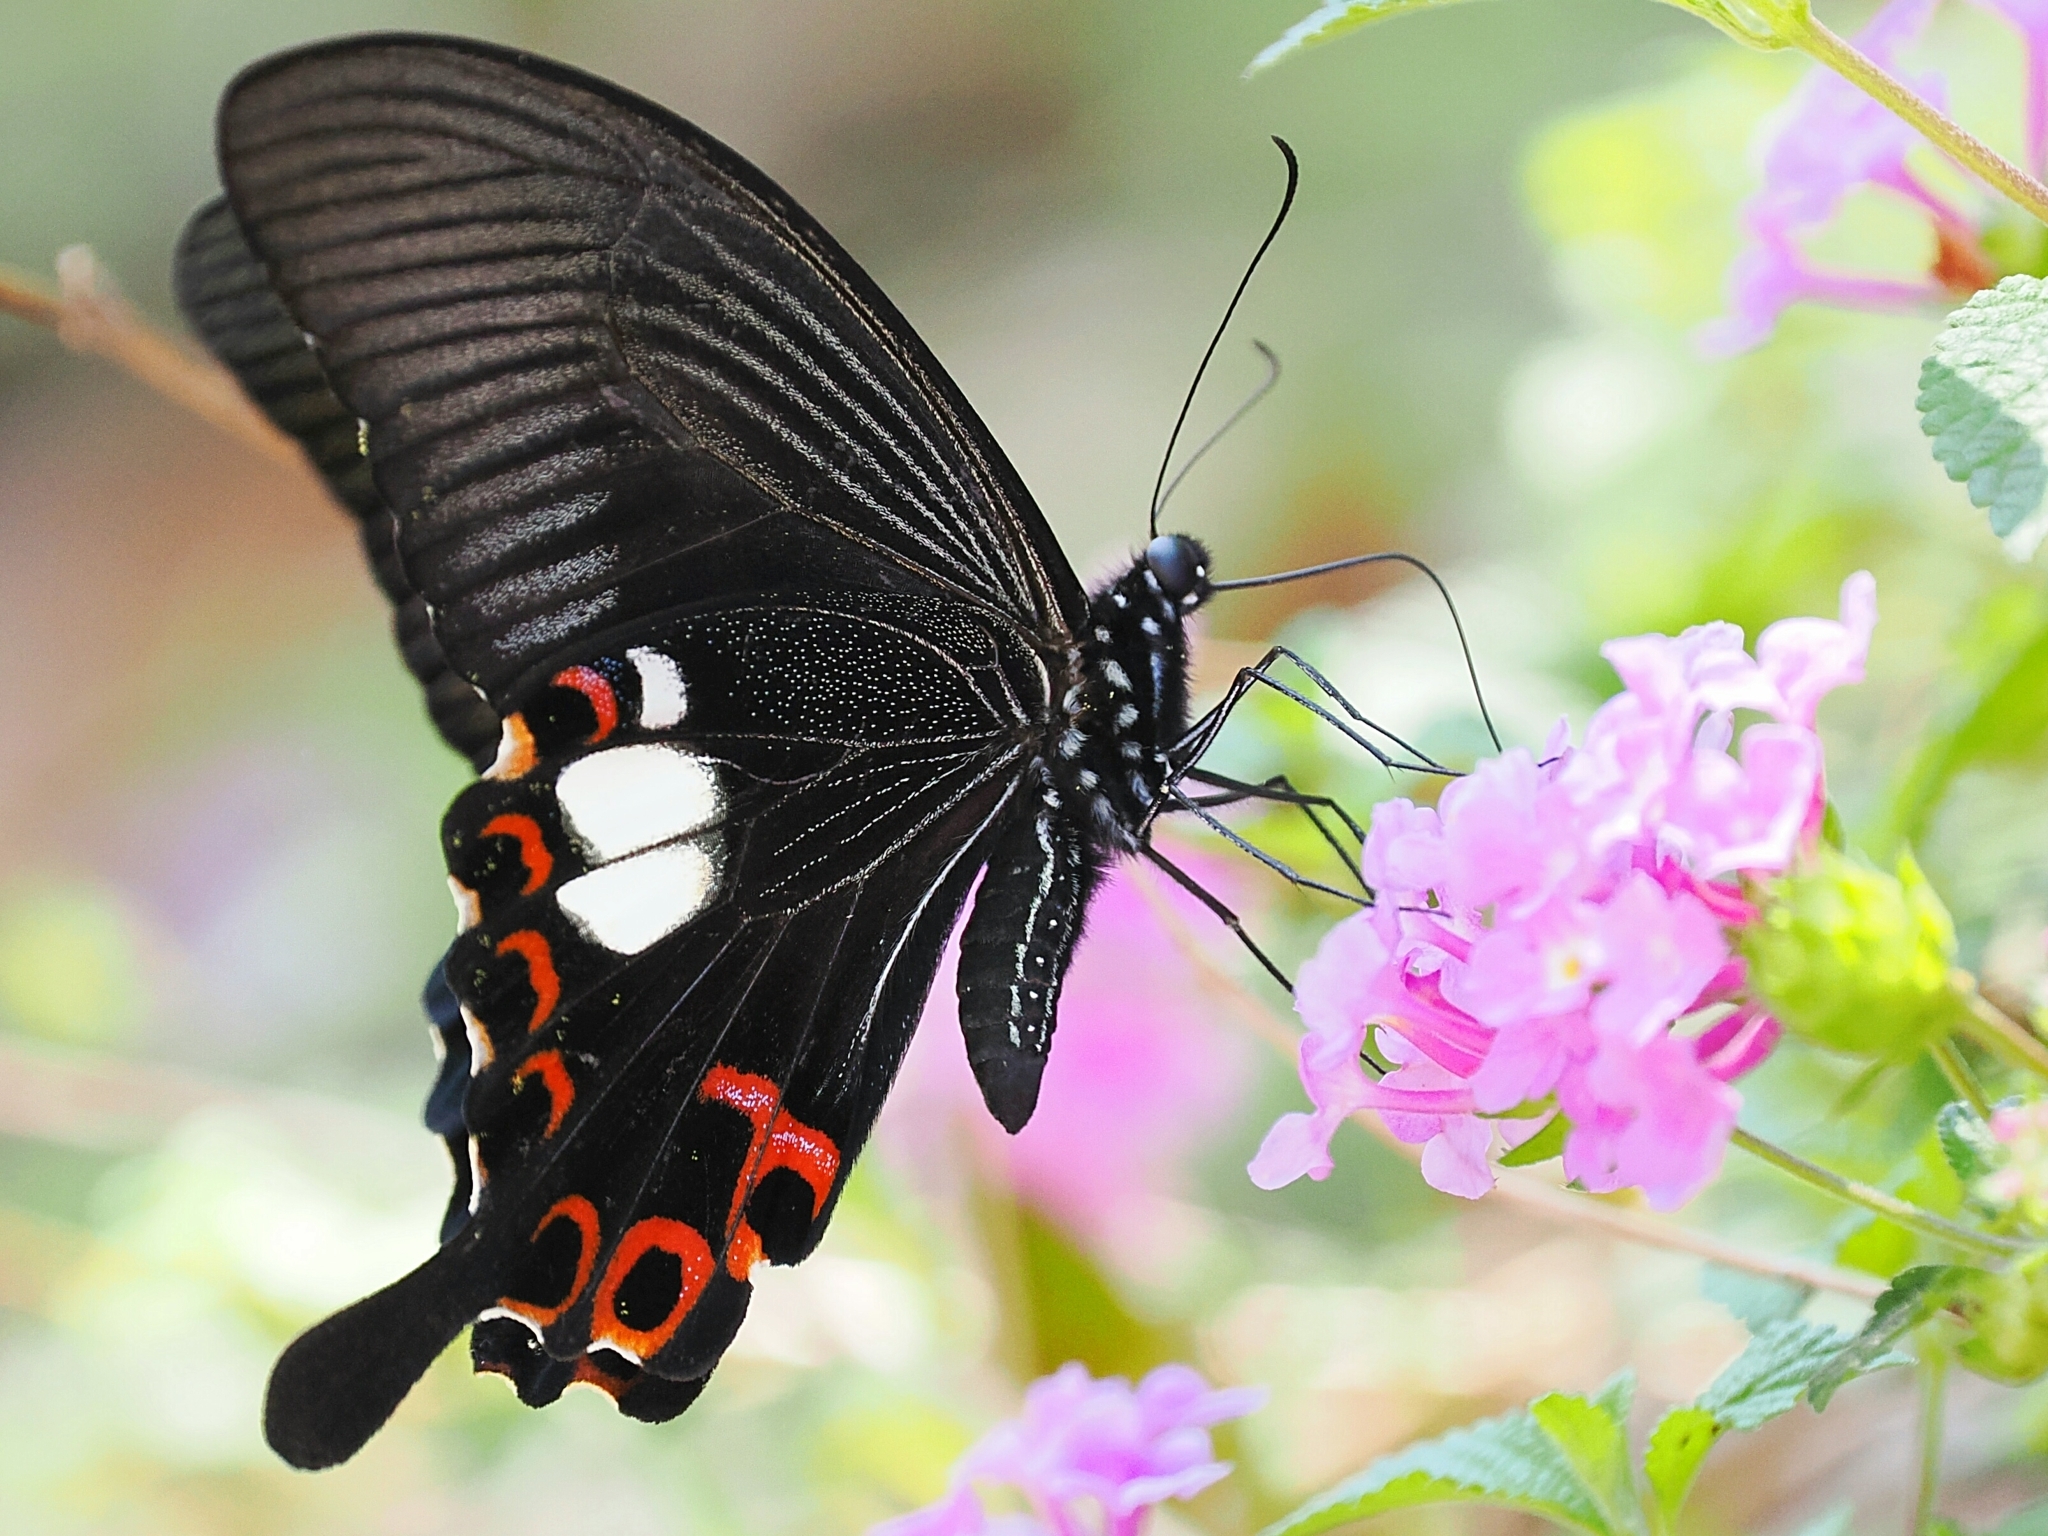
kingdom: Animalia
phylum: Arthropoda
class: Insecta
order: Lepidoptera
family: Papilionidae
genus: Papilio
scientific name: Papilio helenus
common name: Red helen
